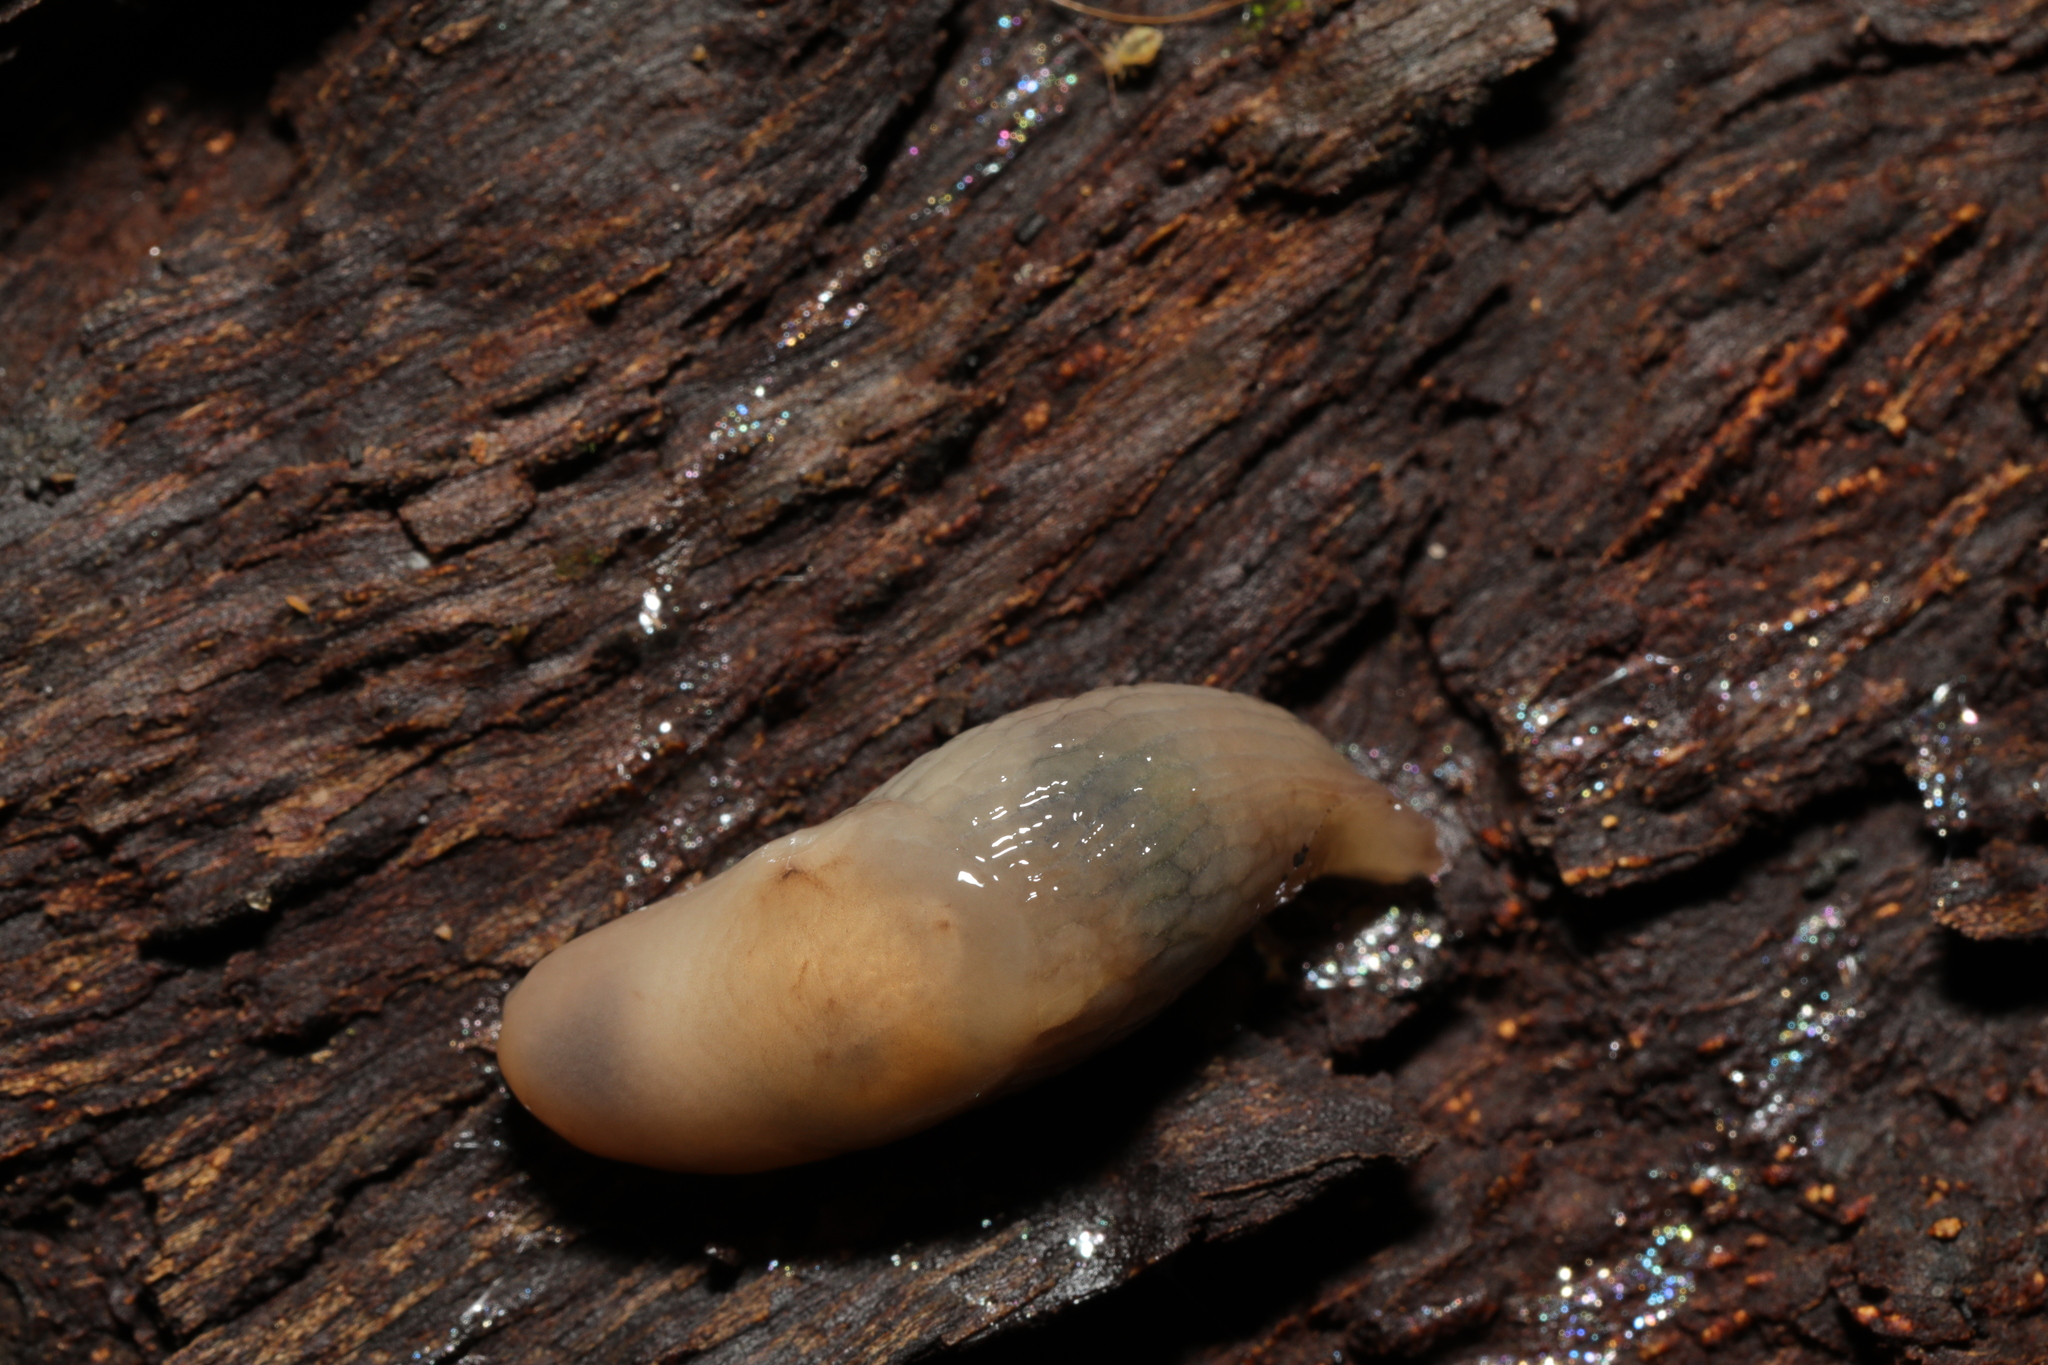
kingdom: Animalia
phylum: Mollusca
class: Gastropoda
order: Stylommatophora
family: Agriolimacidae
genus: Deroceras
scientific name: Deroceras reticulatum
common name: Gray field slug
